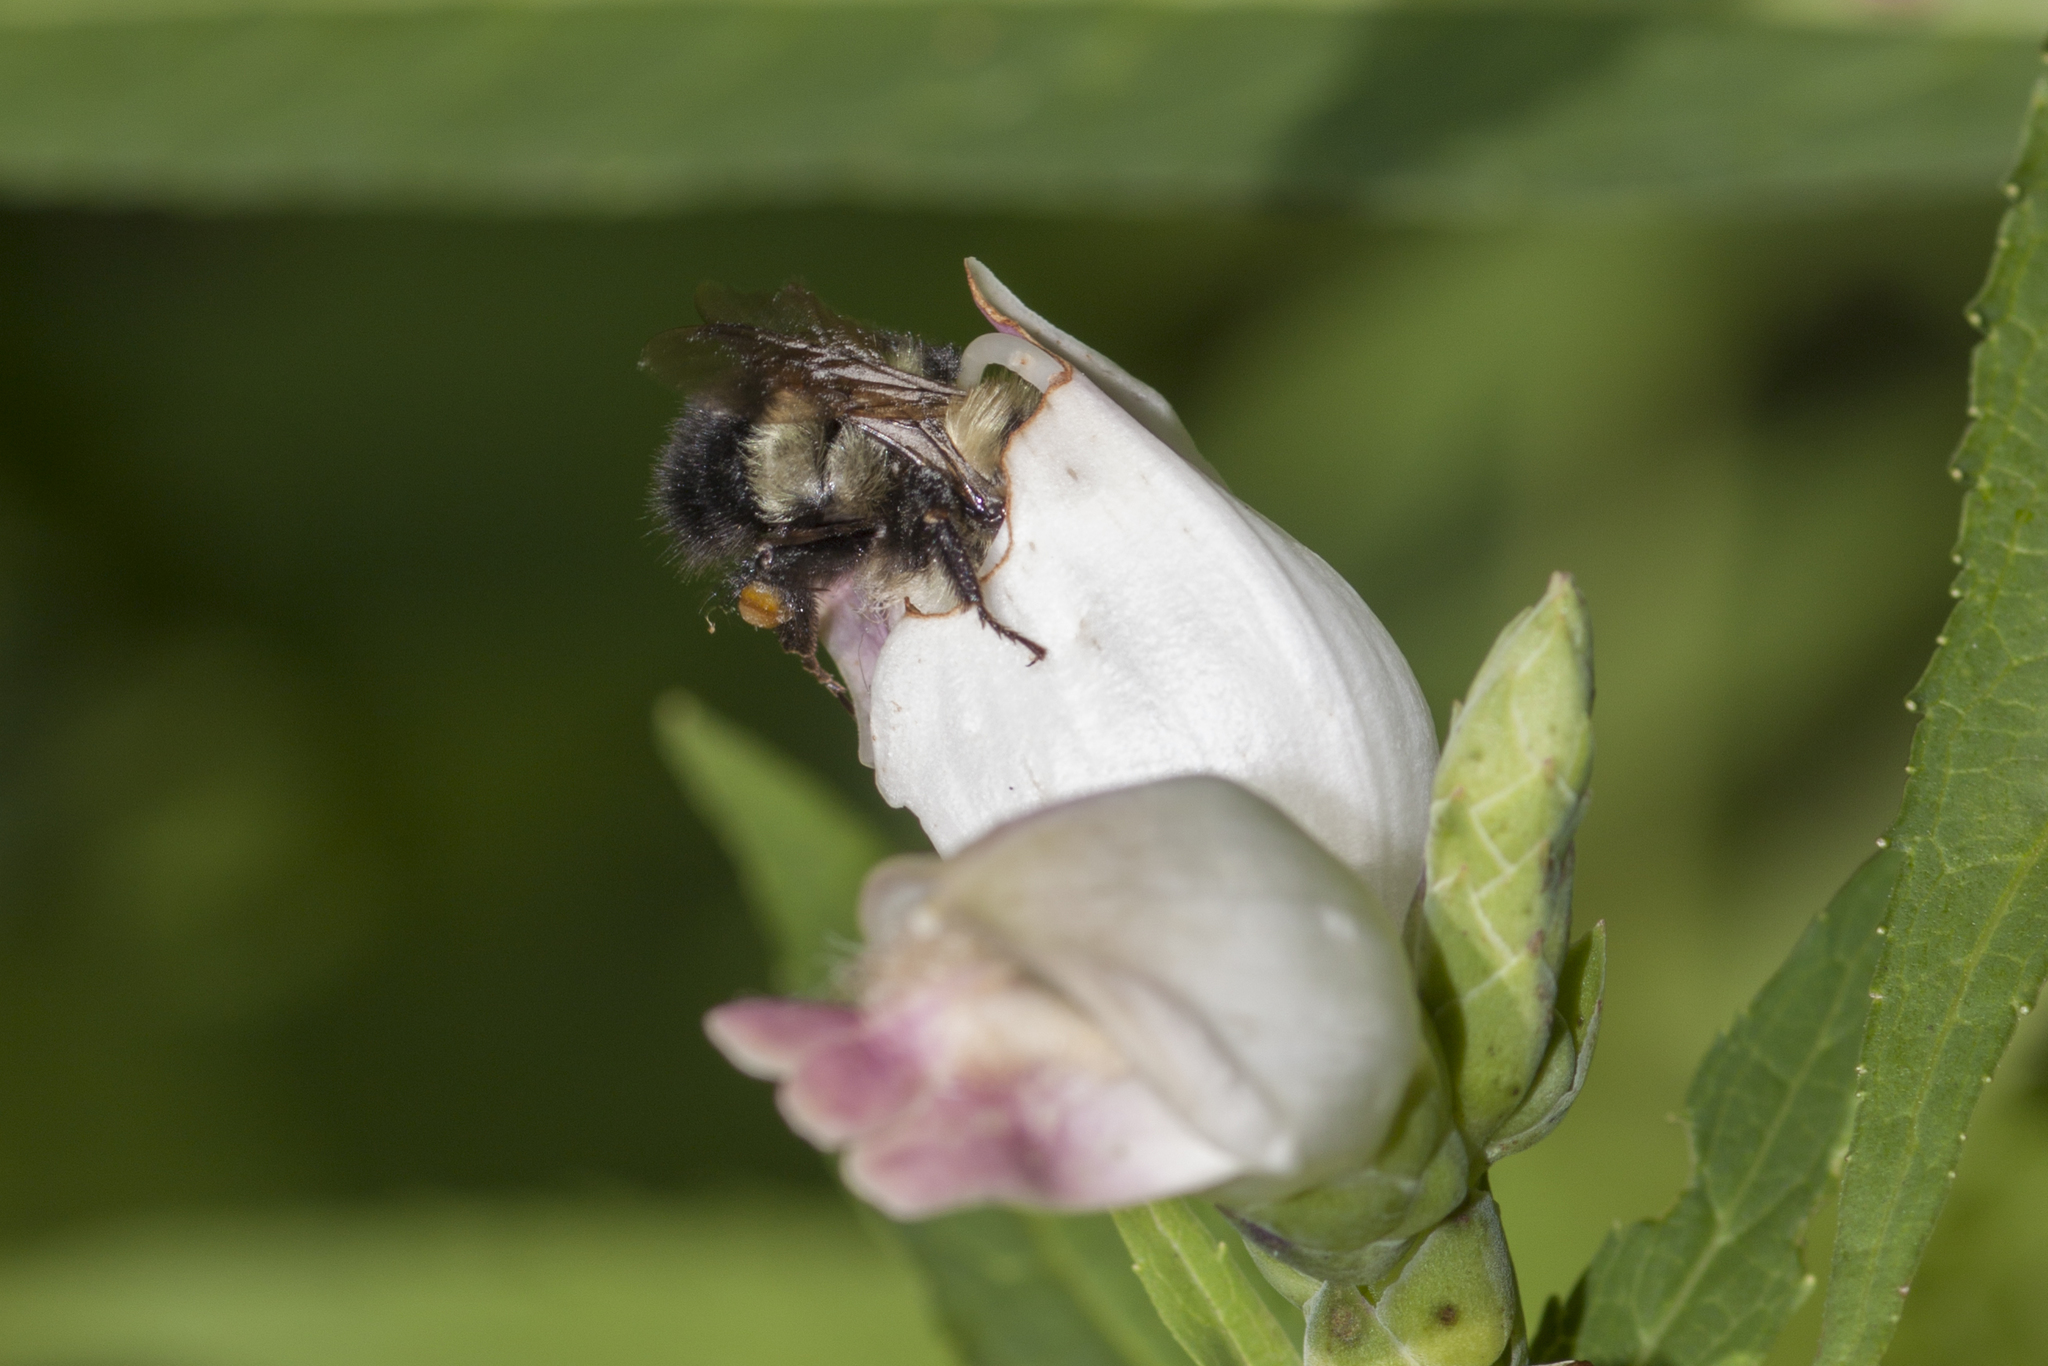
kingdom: Animalia
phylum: Arthropoda
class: Insecta
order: Hymenoptera
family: Apidae
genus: Pyrobombus
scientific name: Pyrobombus
